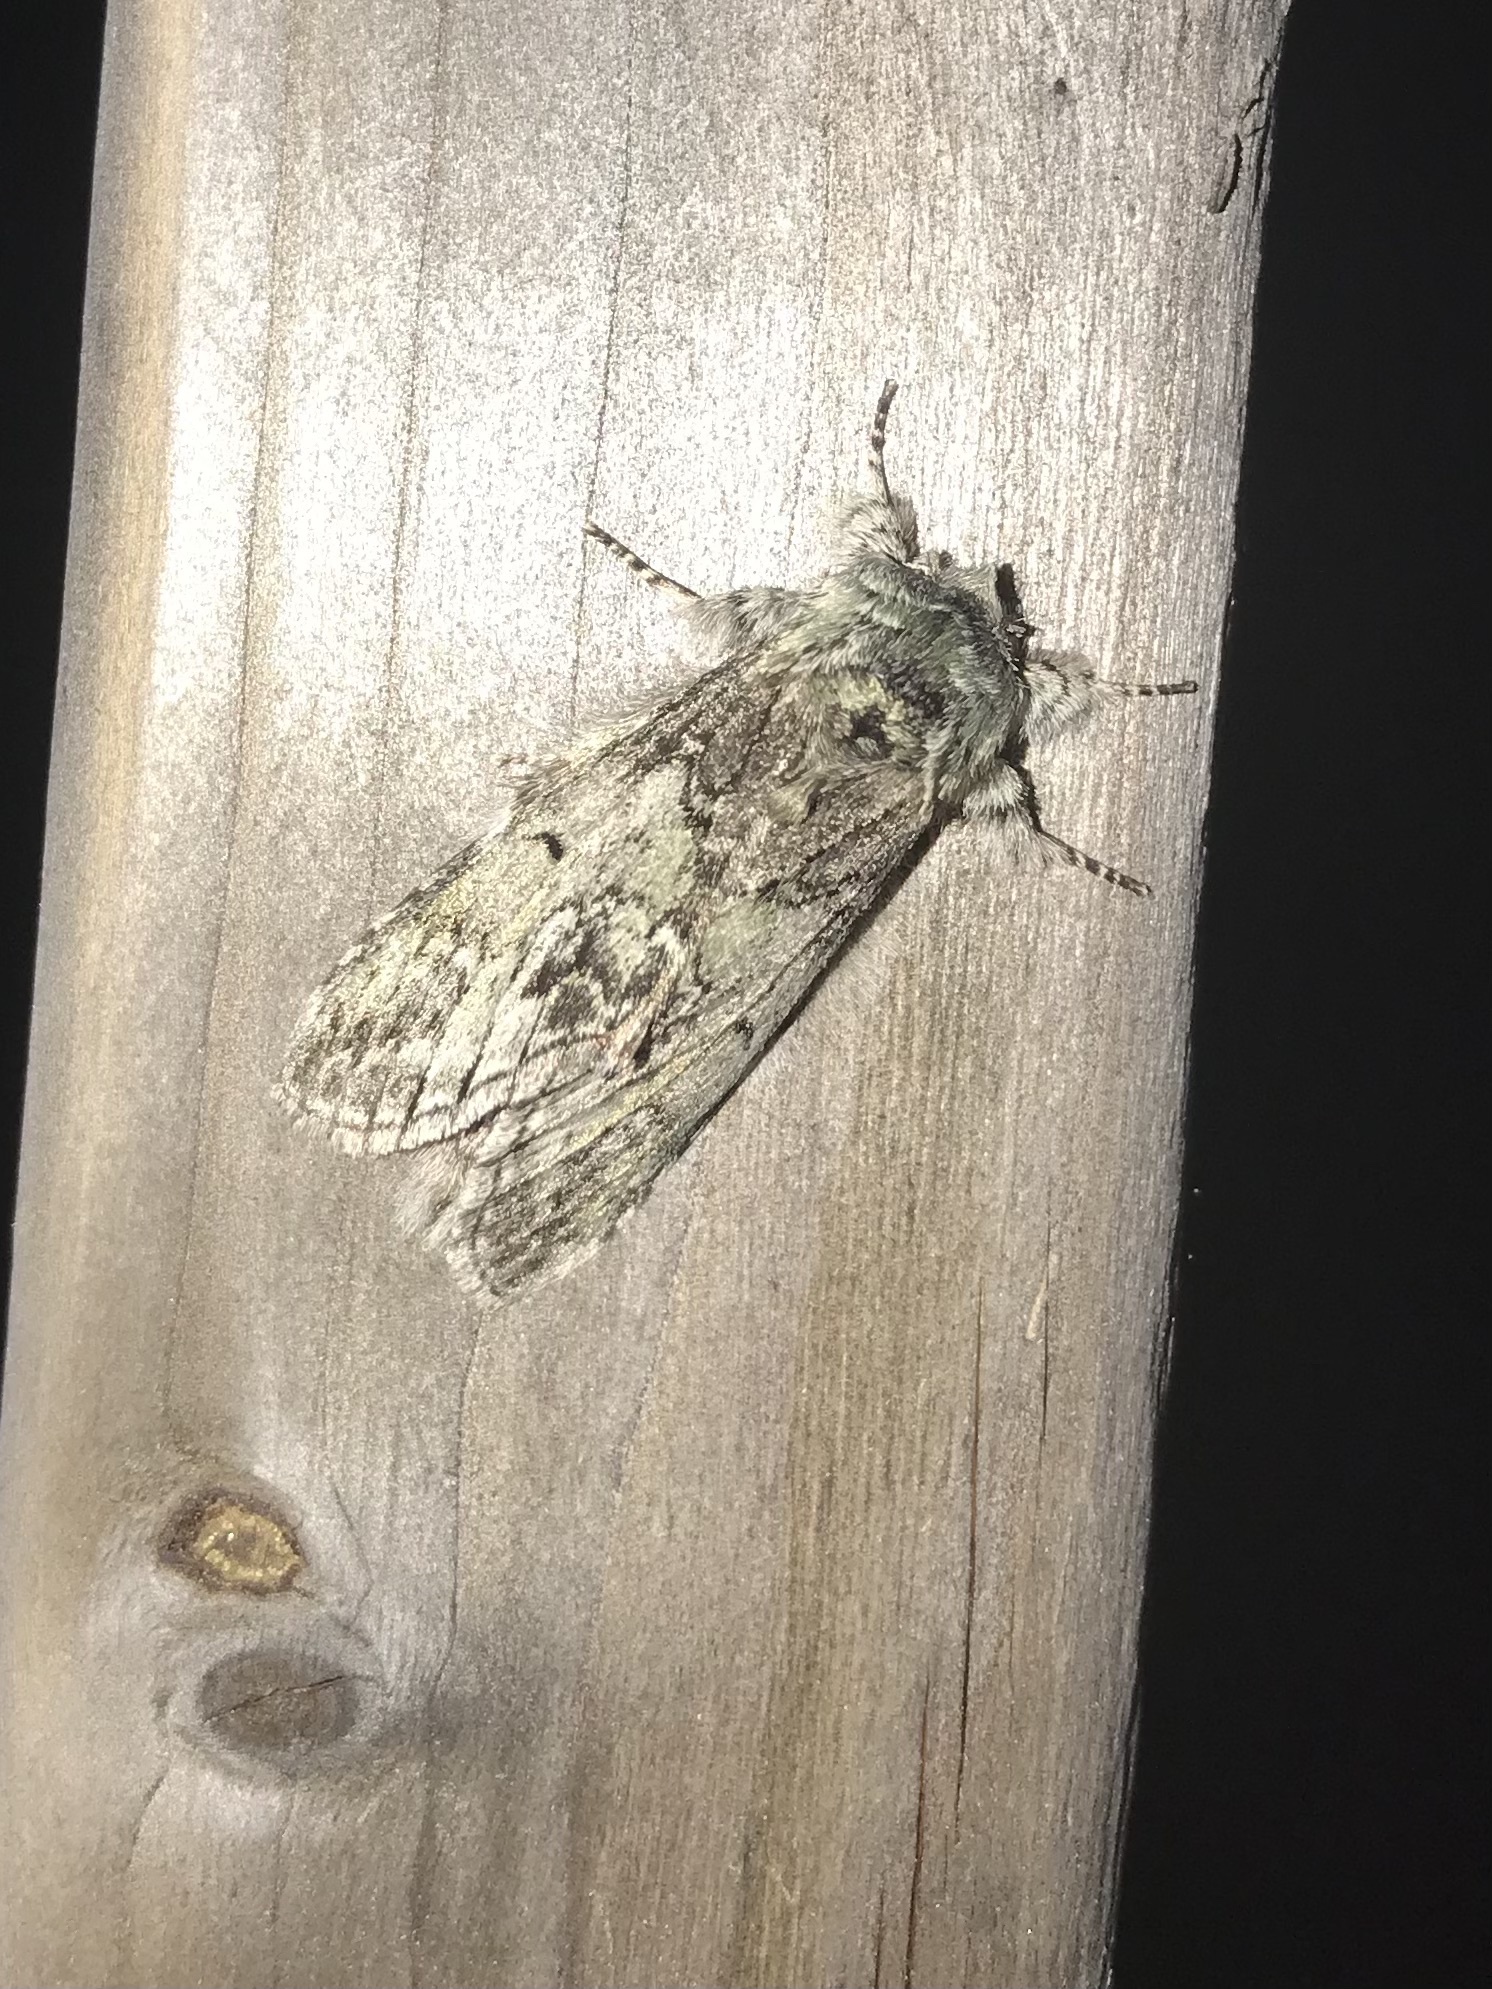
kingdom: Animalia
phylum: Arthropoda
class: Insecta
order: Lepidoptera
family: Notodontidae
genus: Macrurocampa
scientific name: Macrurocampa marthesia
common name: Mottled prominent
